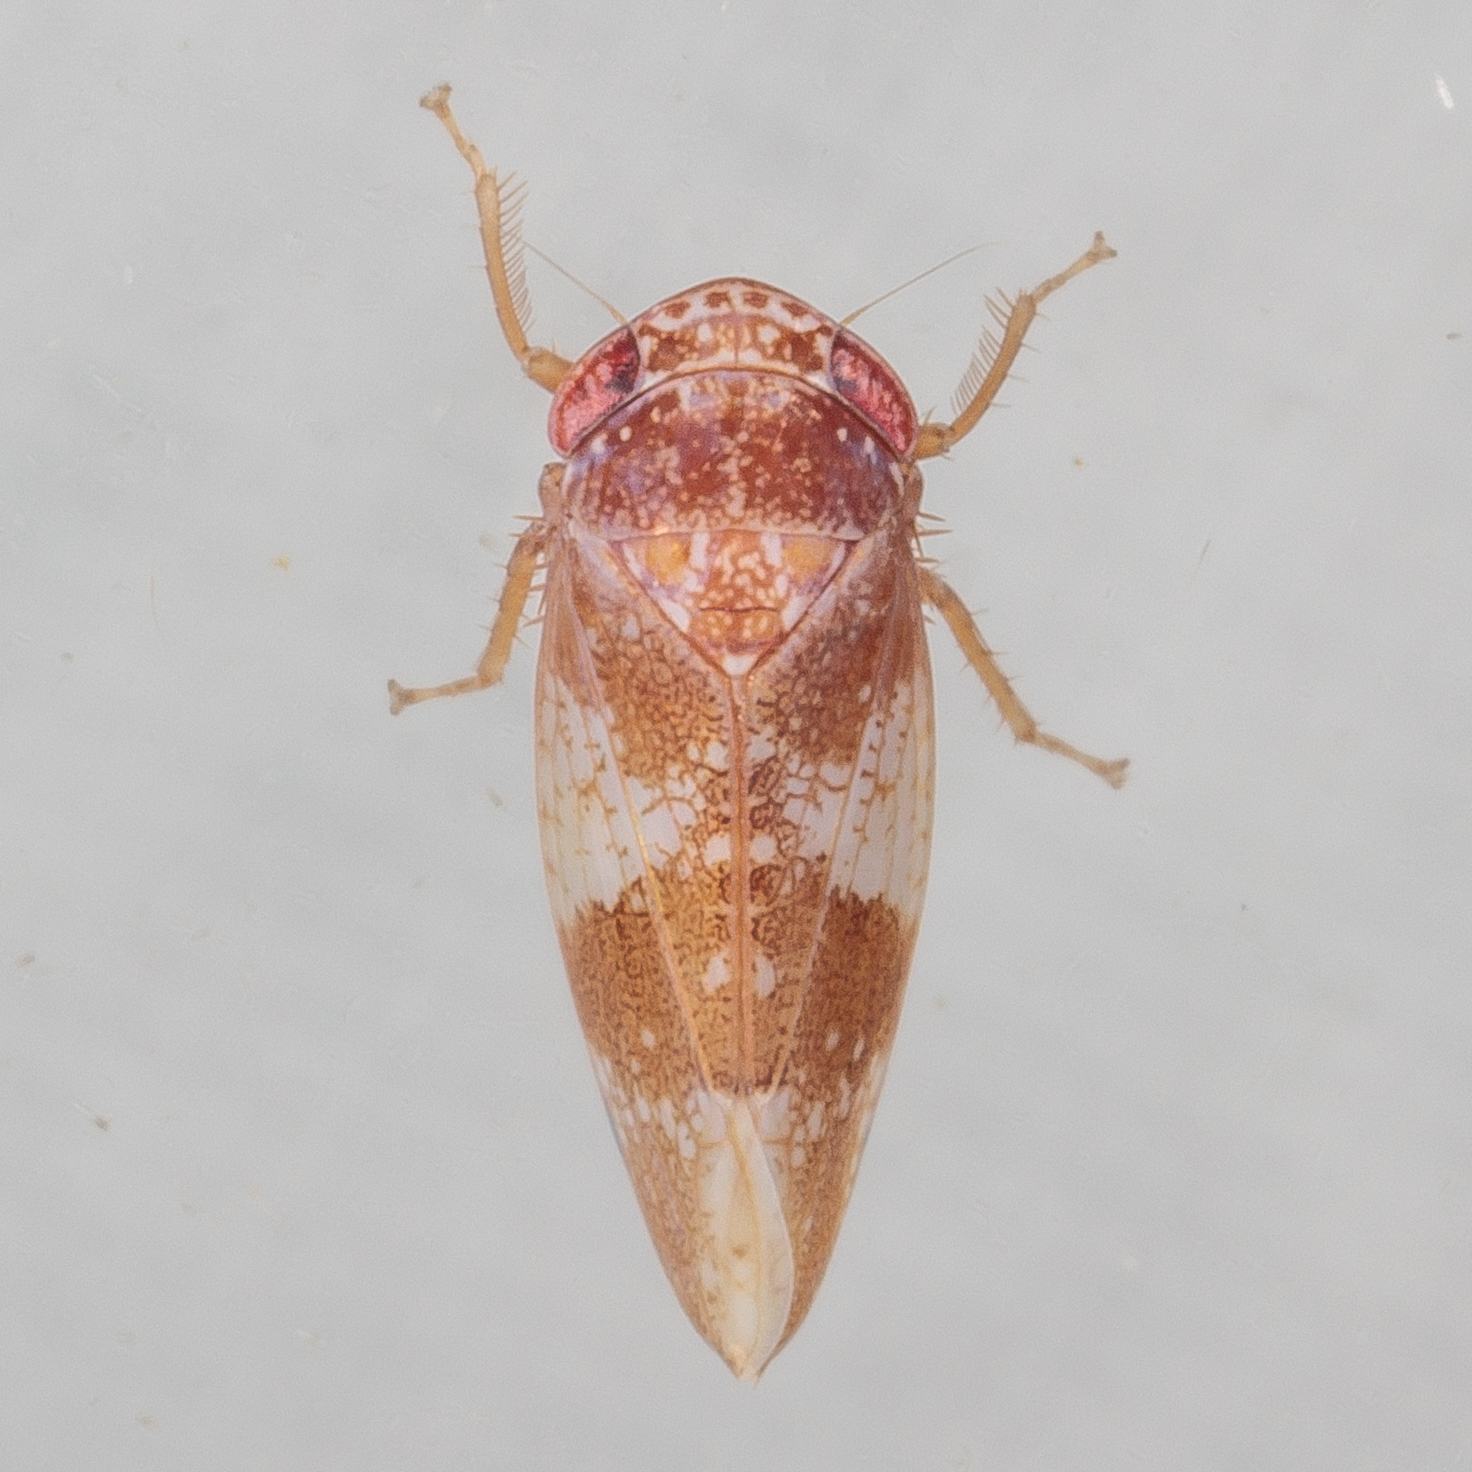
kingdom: Animalia
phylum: Arthropoda
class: Insecta
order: Hemiptera
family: Cicadellidae
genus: Norvellina
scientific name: Norvellina helenae
